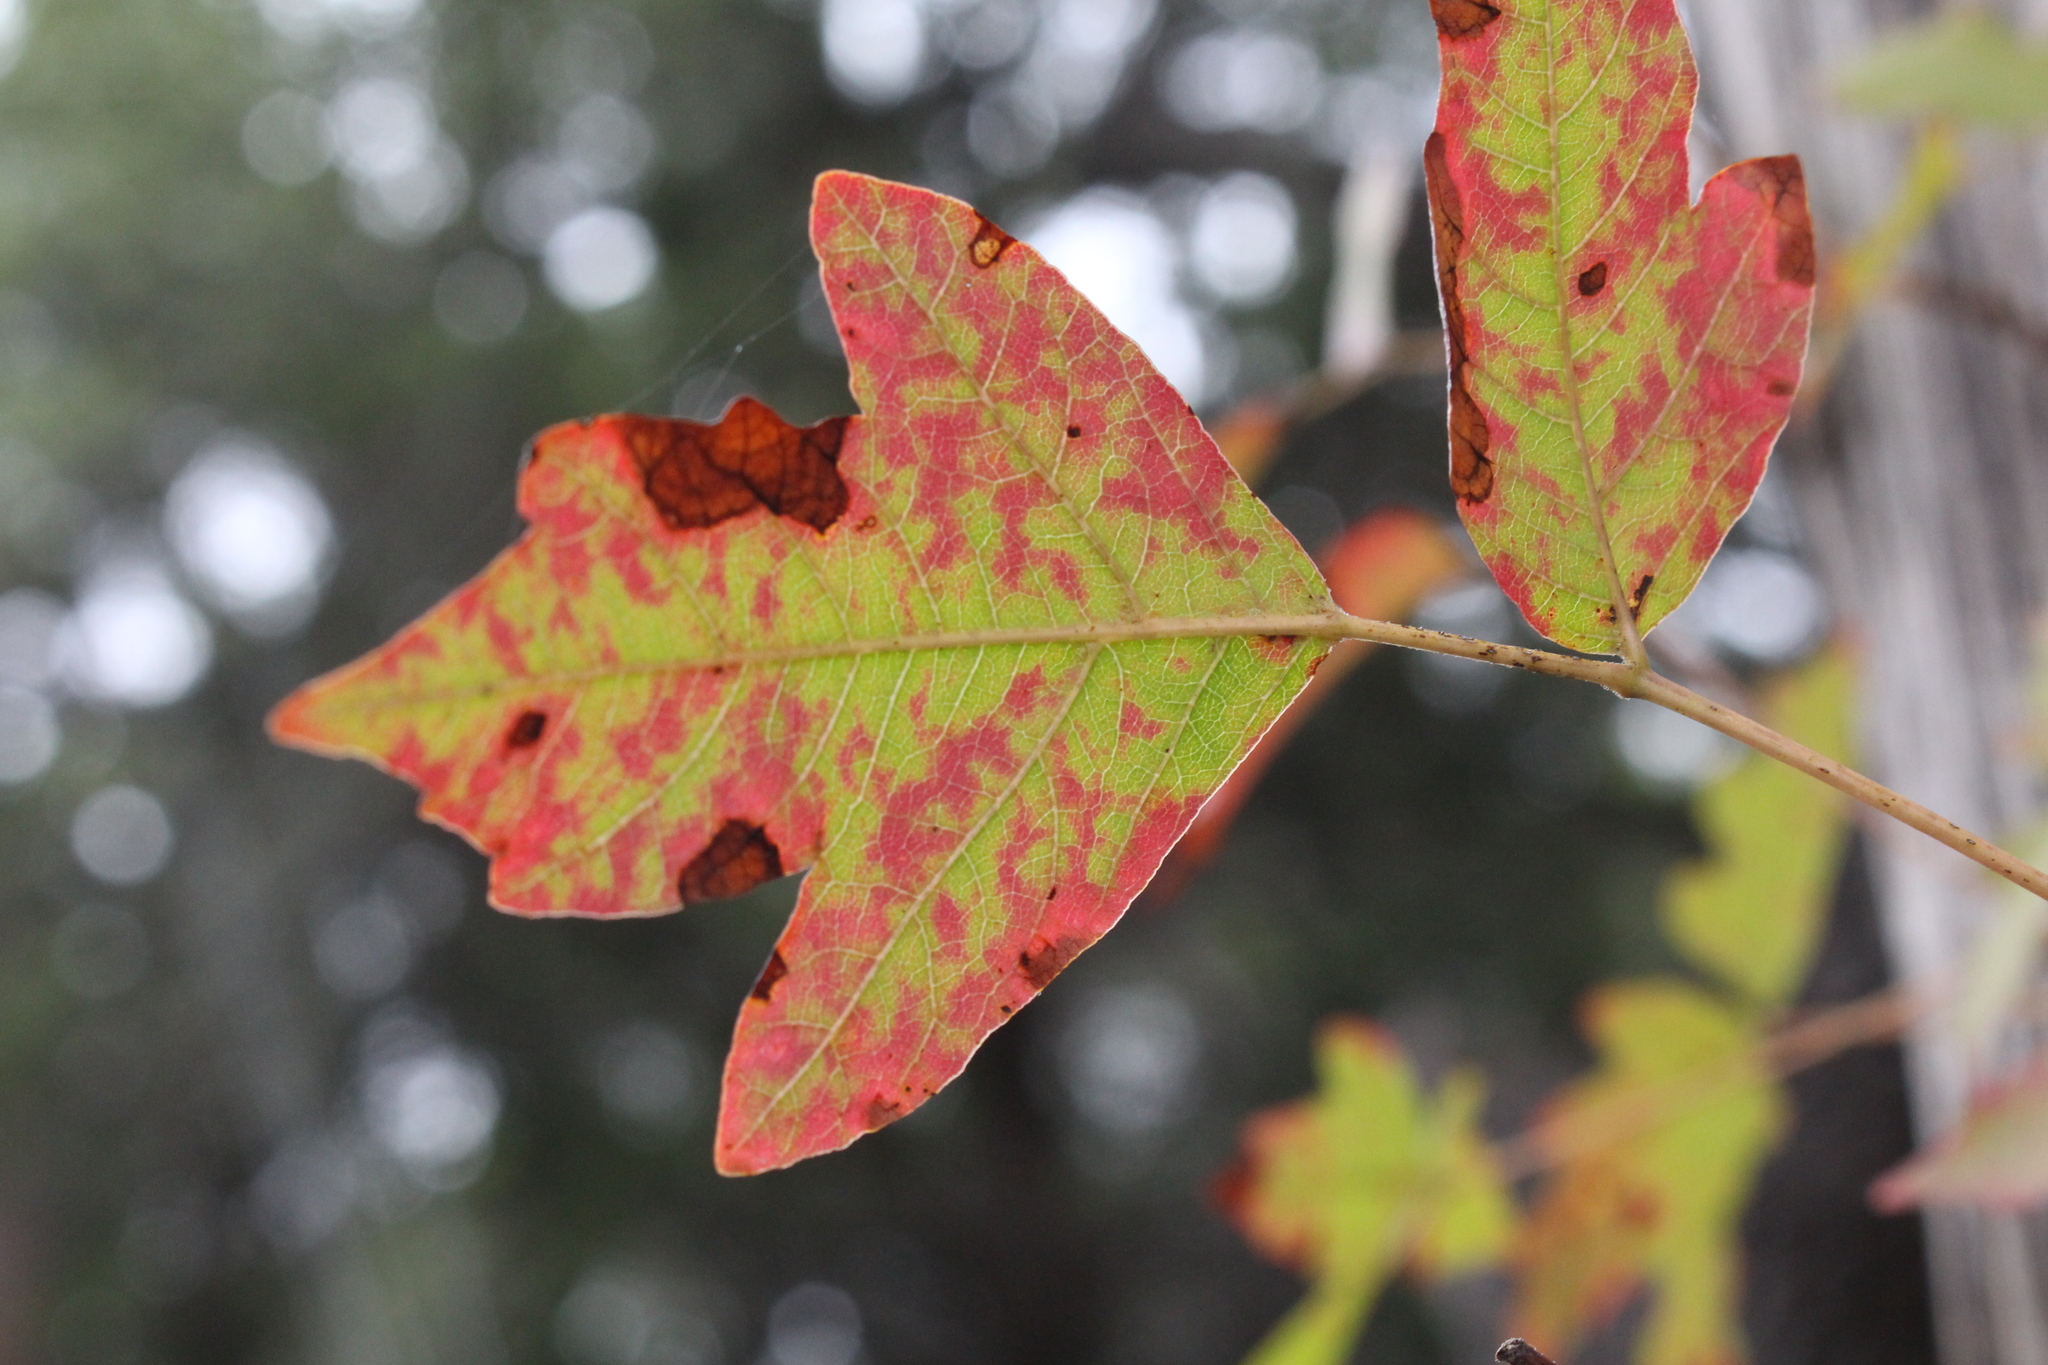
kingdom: Plantae
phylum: Tracheophyta
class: Magnoliopsida
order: Sapindales
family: Anacardiaceae
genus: Toxicodendron
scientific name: Toxicodendron radicans
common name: Poison ivy
